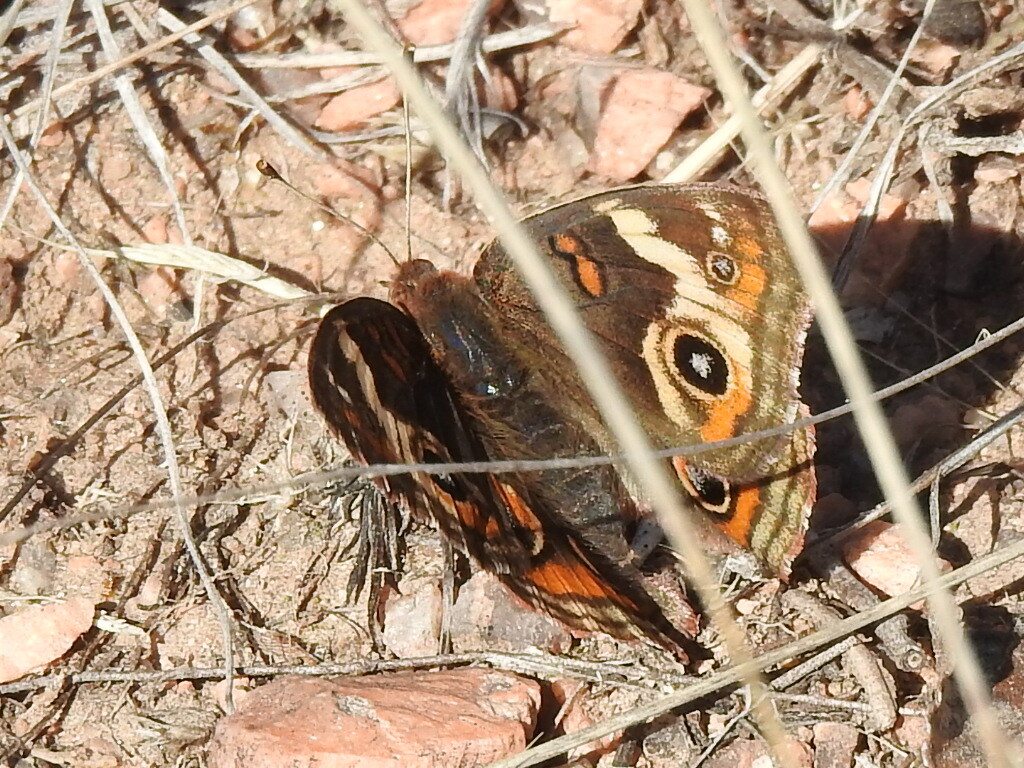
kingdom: Animalia
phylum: Arthropoda
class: Insecta
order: Lepidoptera
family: Nymphalidae
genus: Junonia
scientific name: Junonia coenia
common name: Common buckeye
